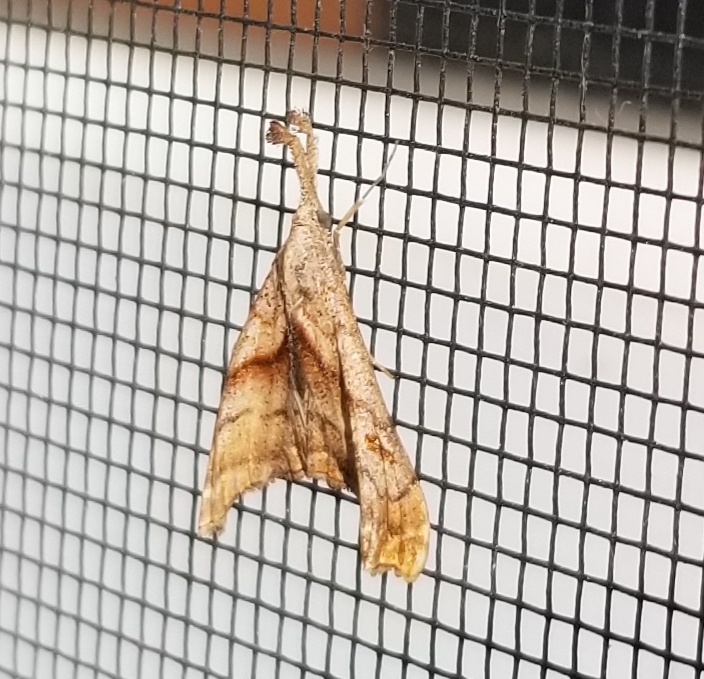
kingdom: Animalia
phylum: Arthropoda
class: Insecta
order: Lepidoptera
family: Erebidae
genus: Palthis
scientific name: Palthis angulalis
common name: Dark-spotted palthis moth
